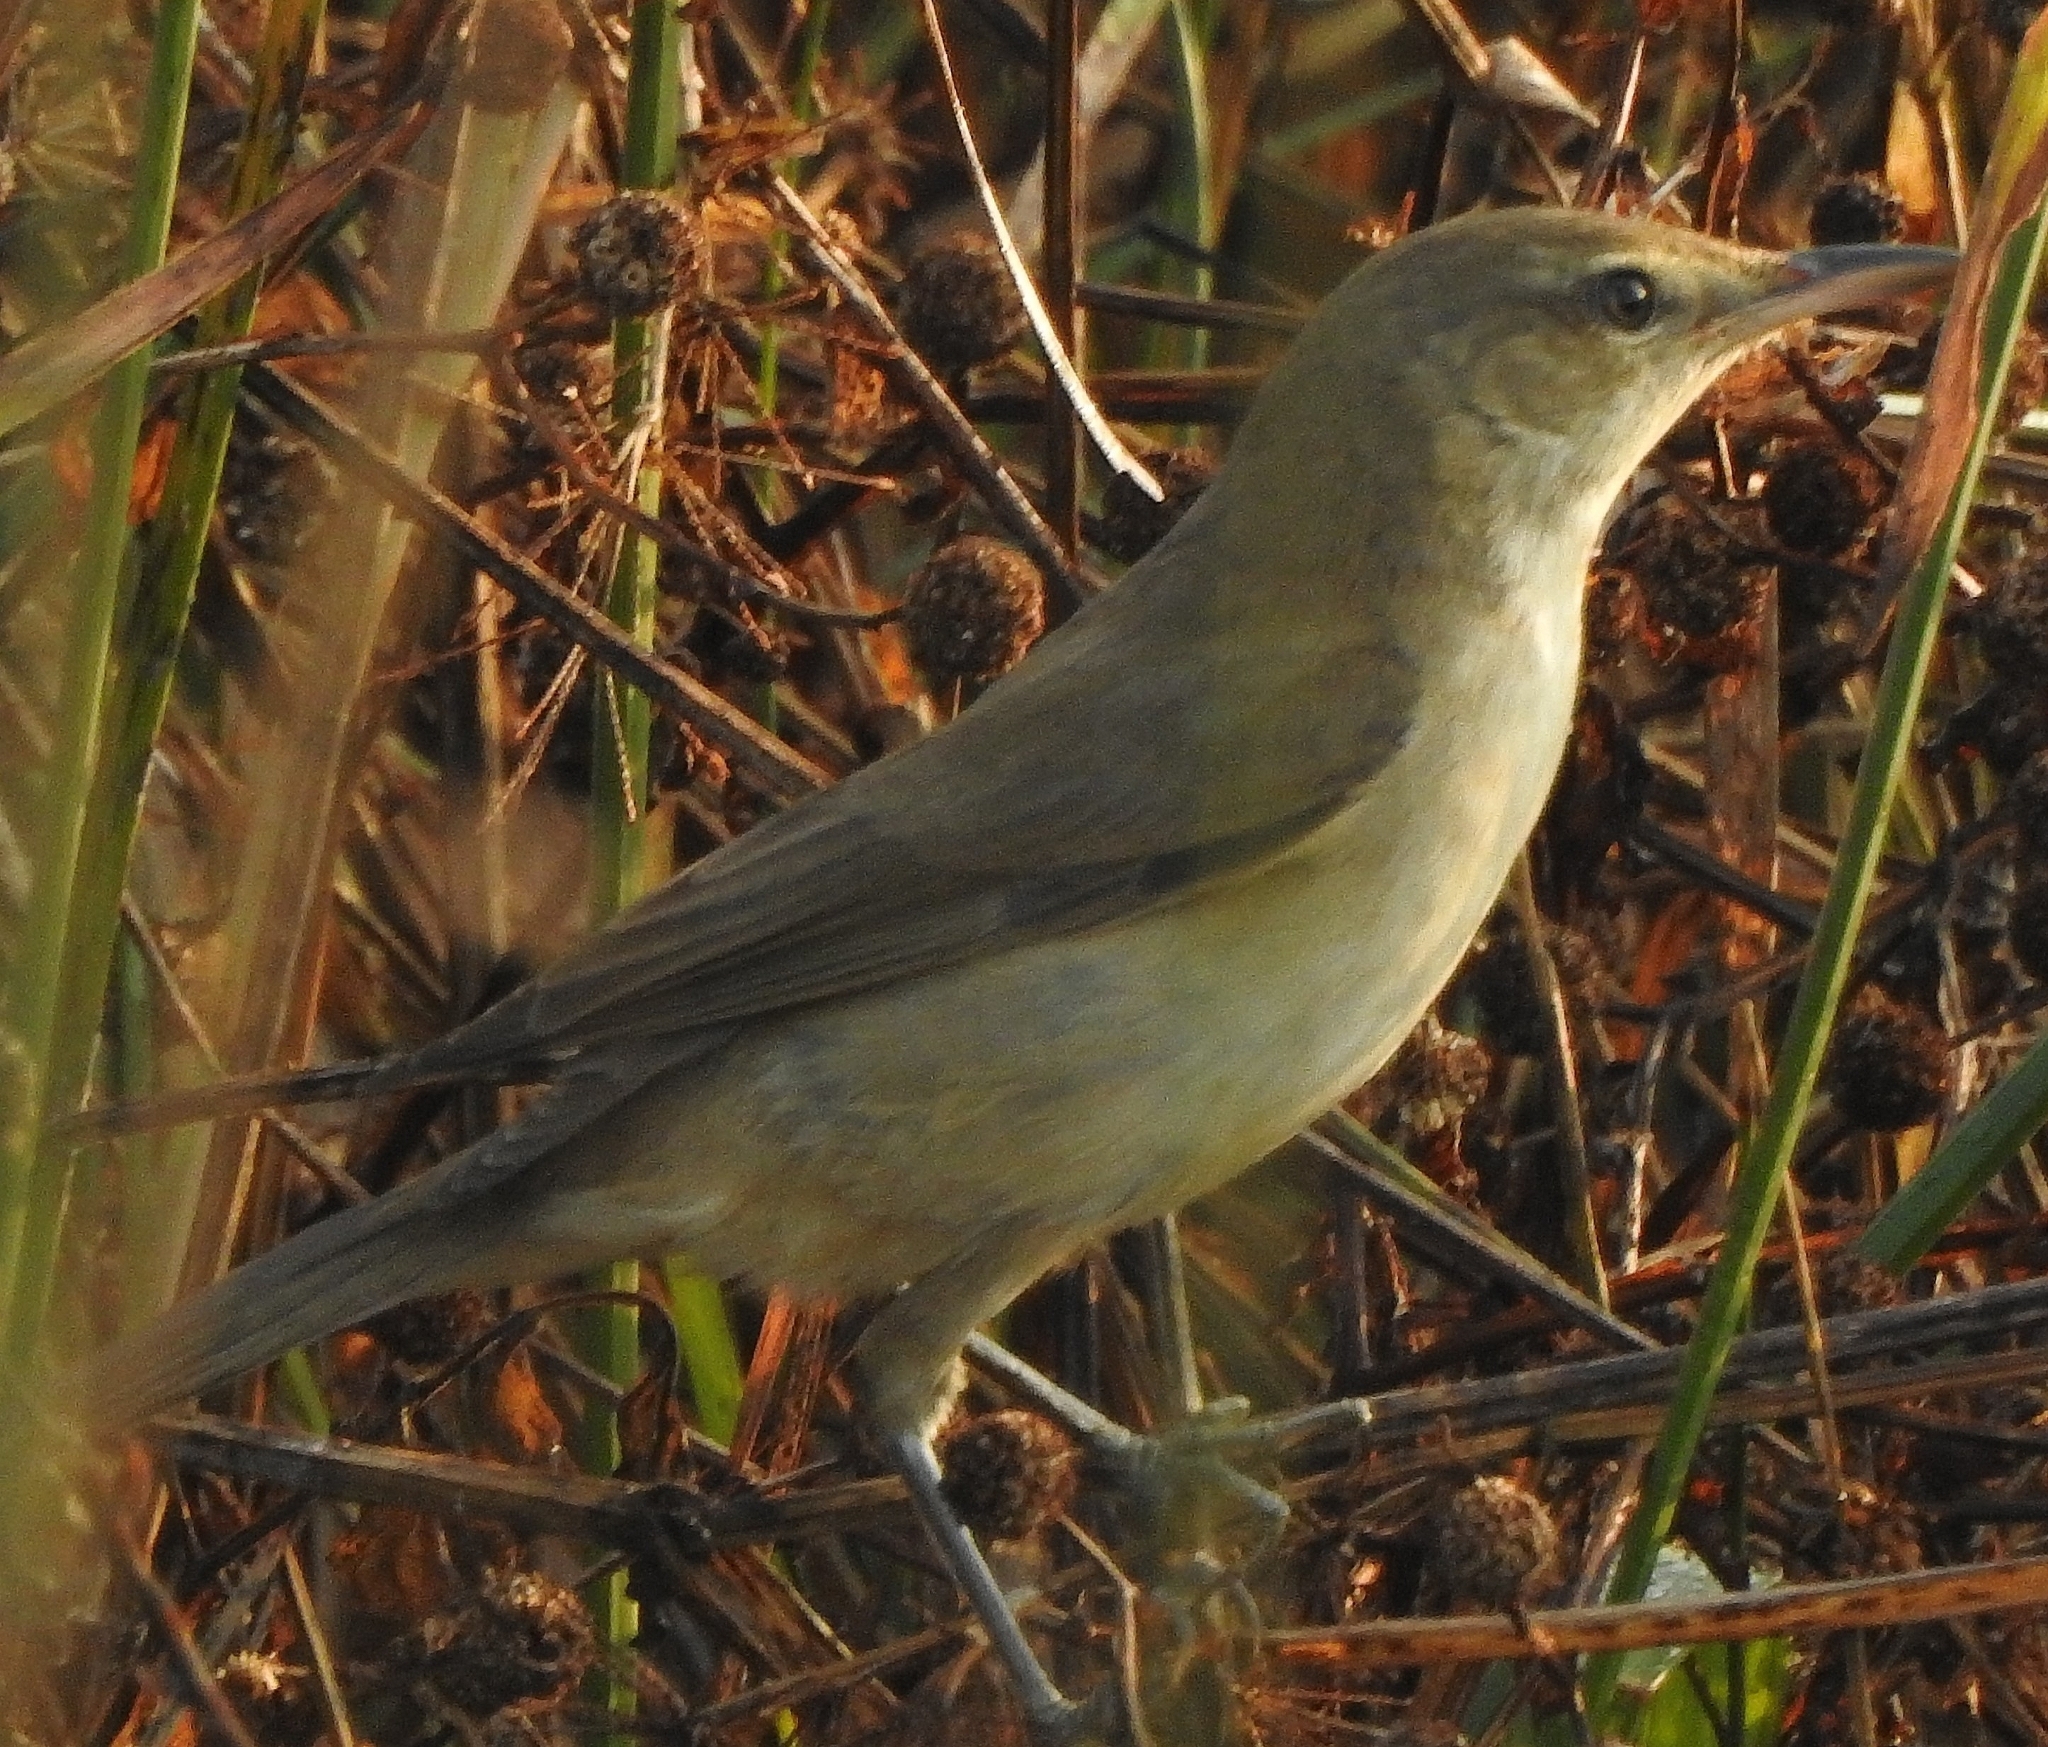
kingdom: Animalia
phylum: Chordata
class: Aves
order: Passeriformes
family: Acrocephalidae
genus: Acrocephalus
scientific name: Acrocephalus stentoreus
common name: Clamorous reed warbler
